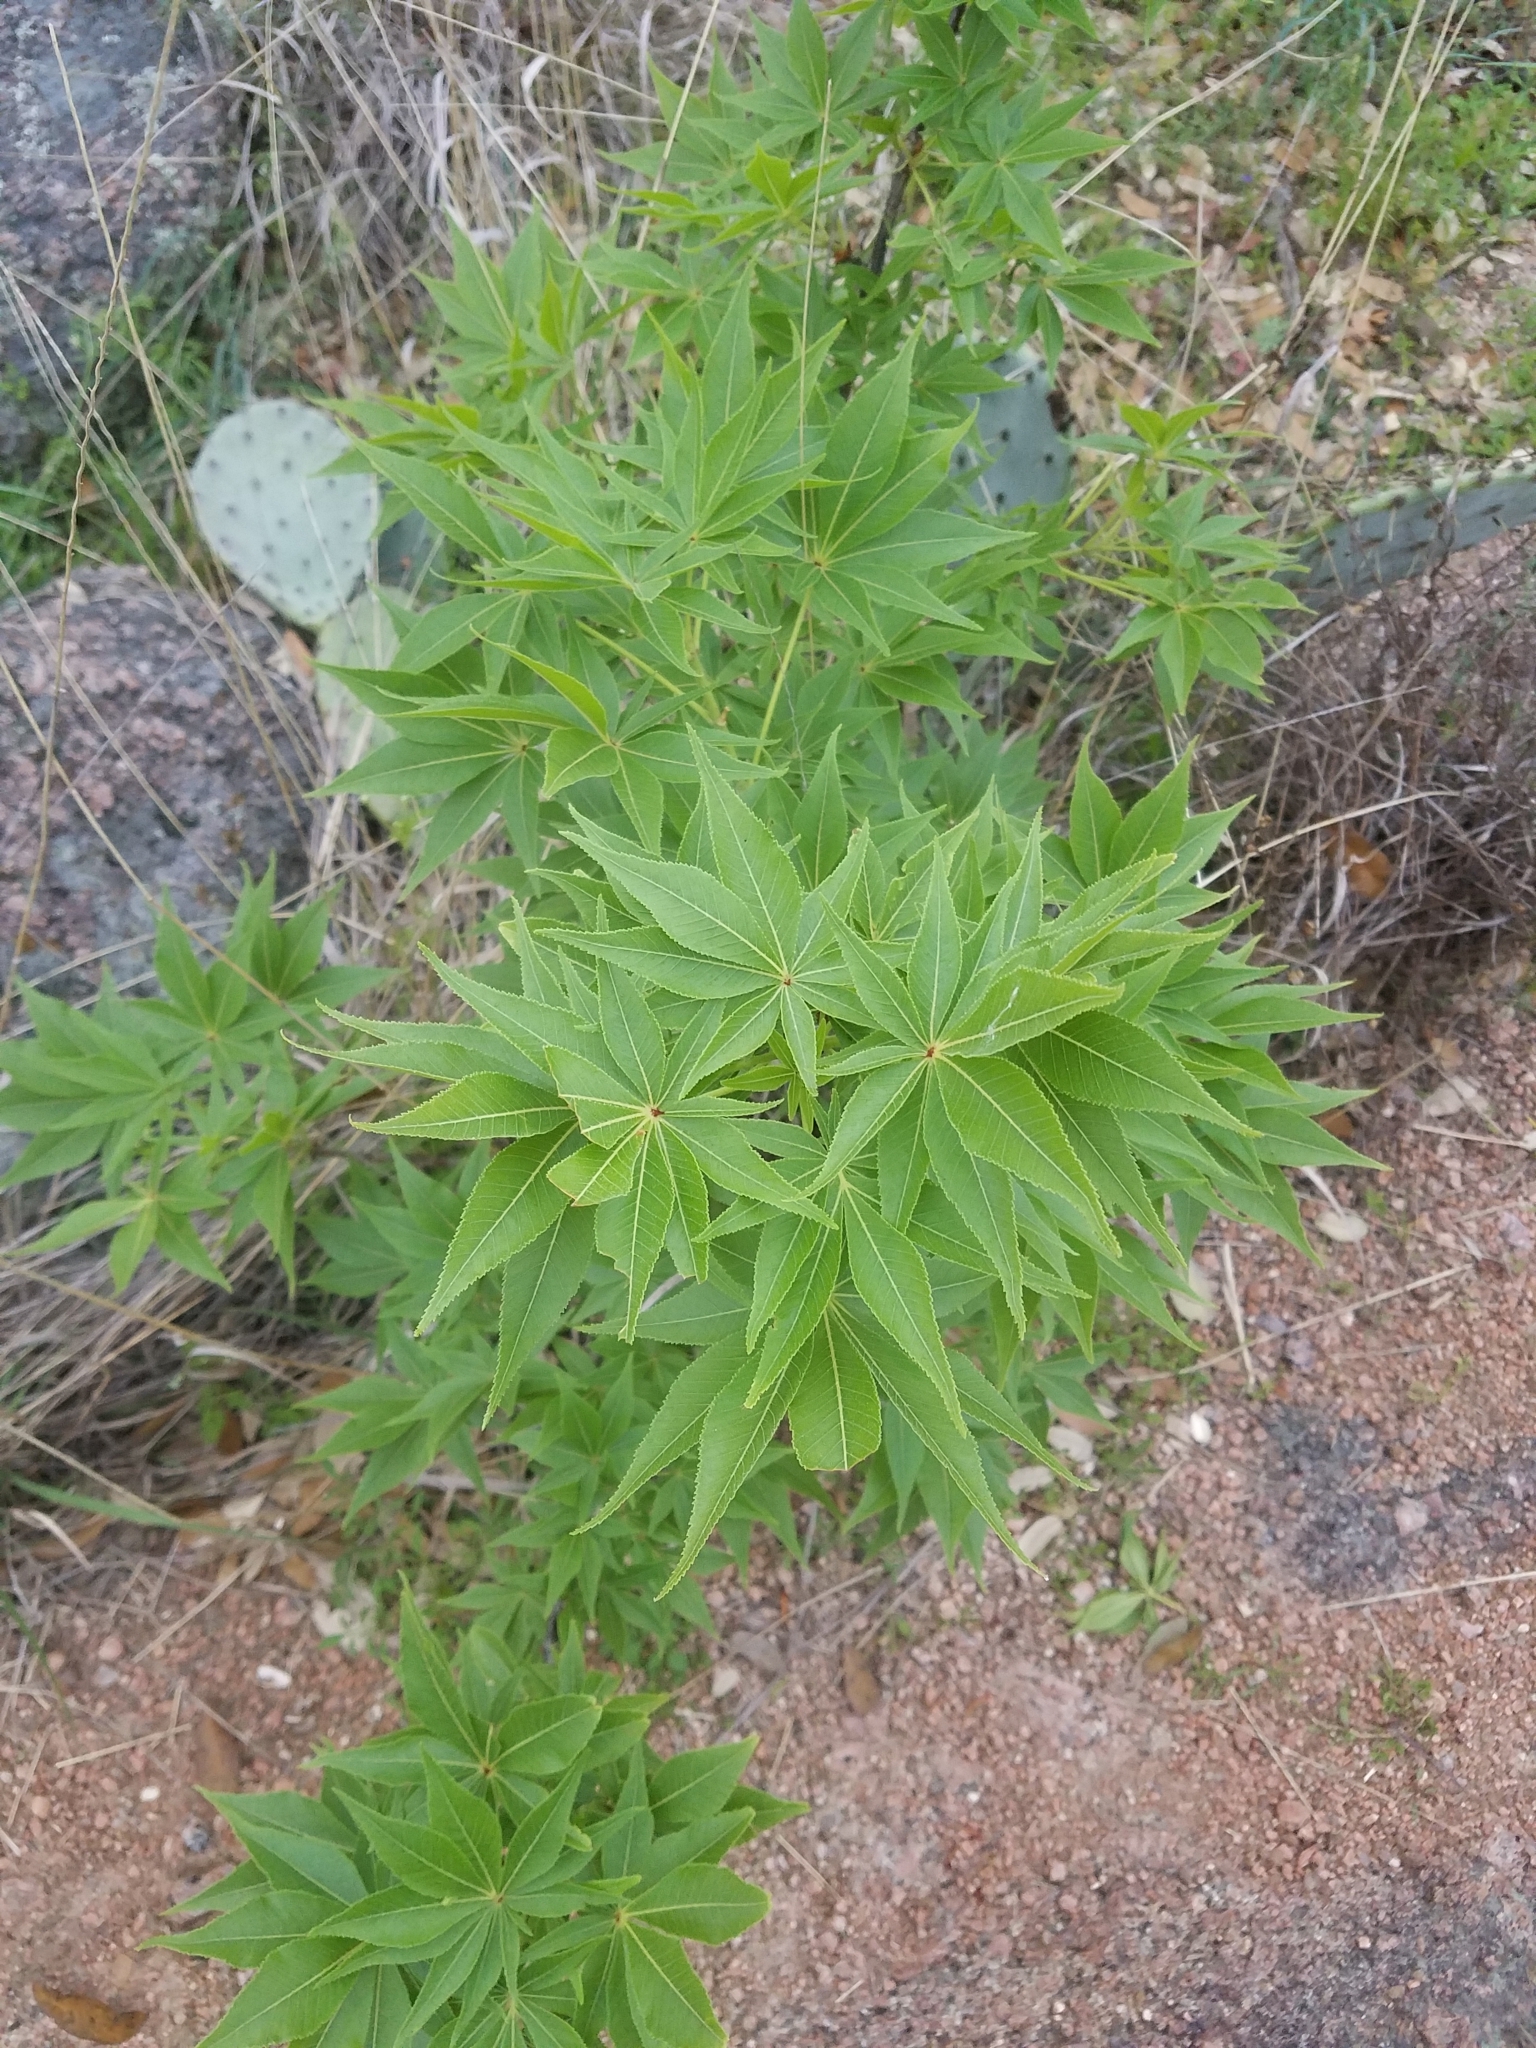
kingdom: Plantae
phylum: Tracheophyta
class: Magnoliopsida
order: Sapindales
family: Sapindaceae
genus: Aesculus
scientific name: Aesculus glabra
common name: Ohio buckeye
